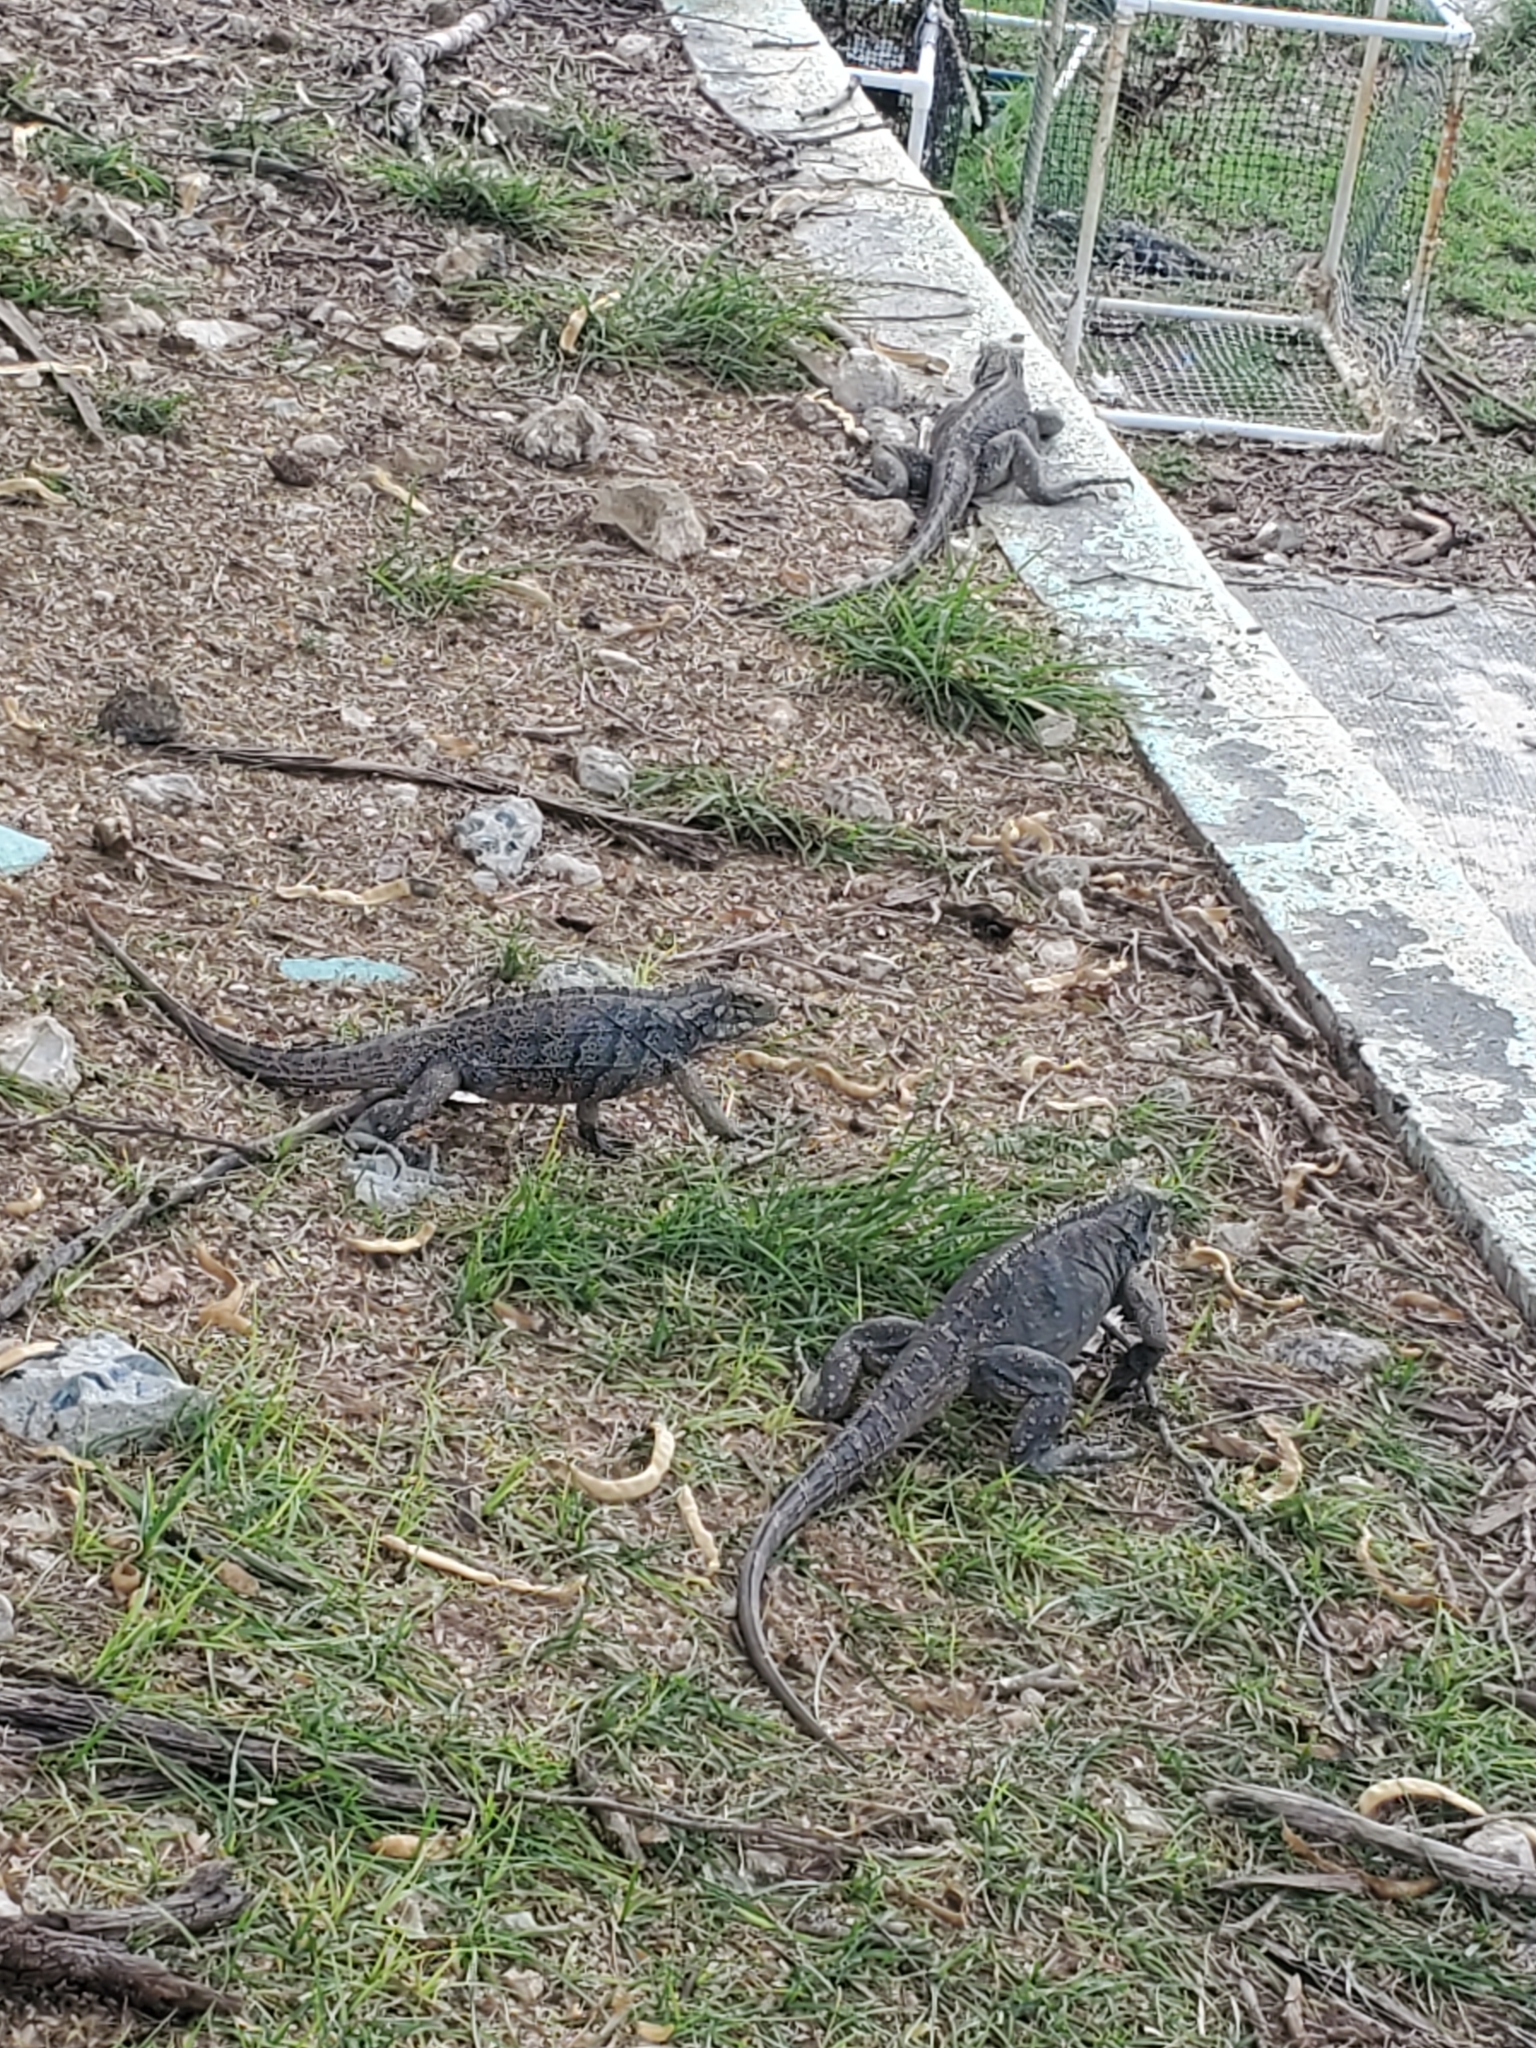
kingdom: Animalia
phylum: Chordata
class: Squamata
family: Iguanidae
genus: Cyclura
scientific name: Cyclura nubila
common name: Cayman islands ground iguana
